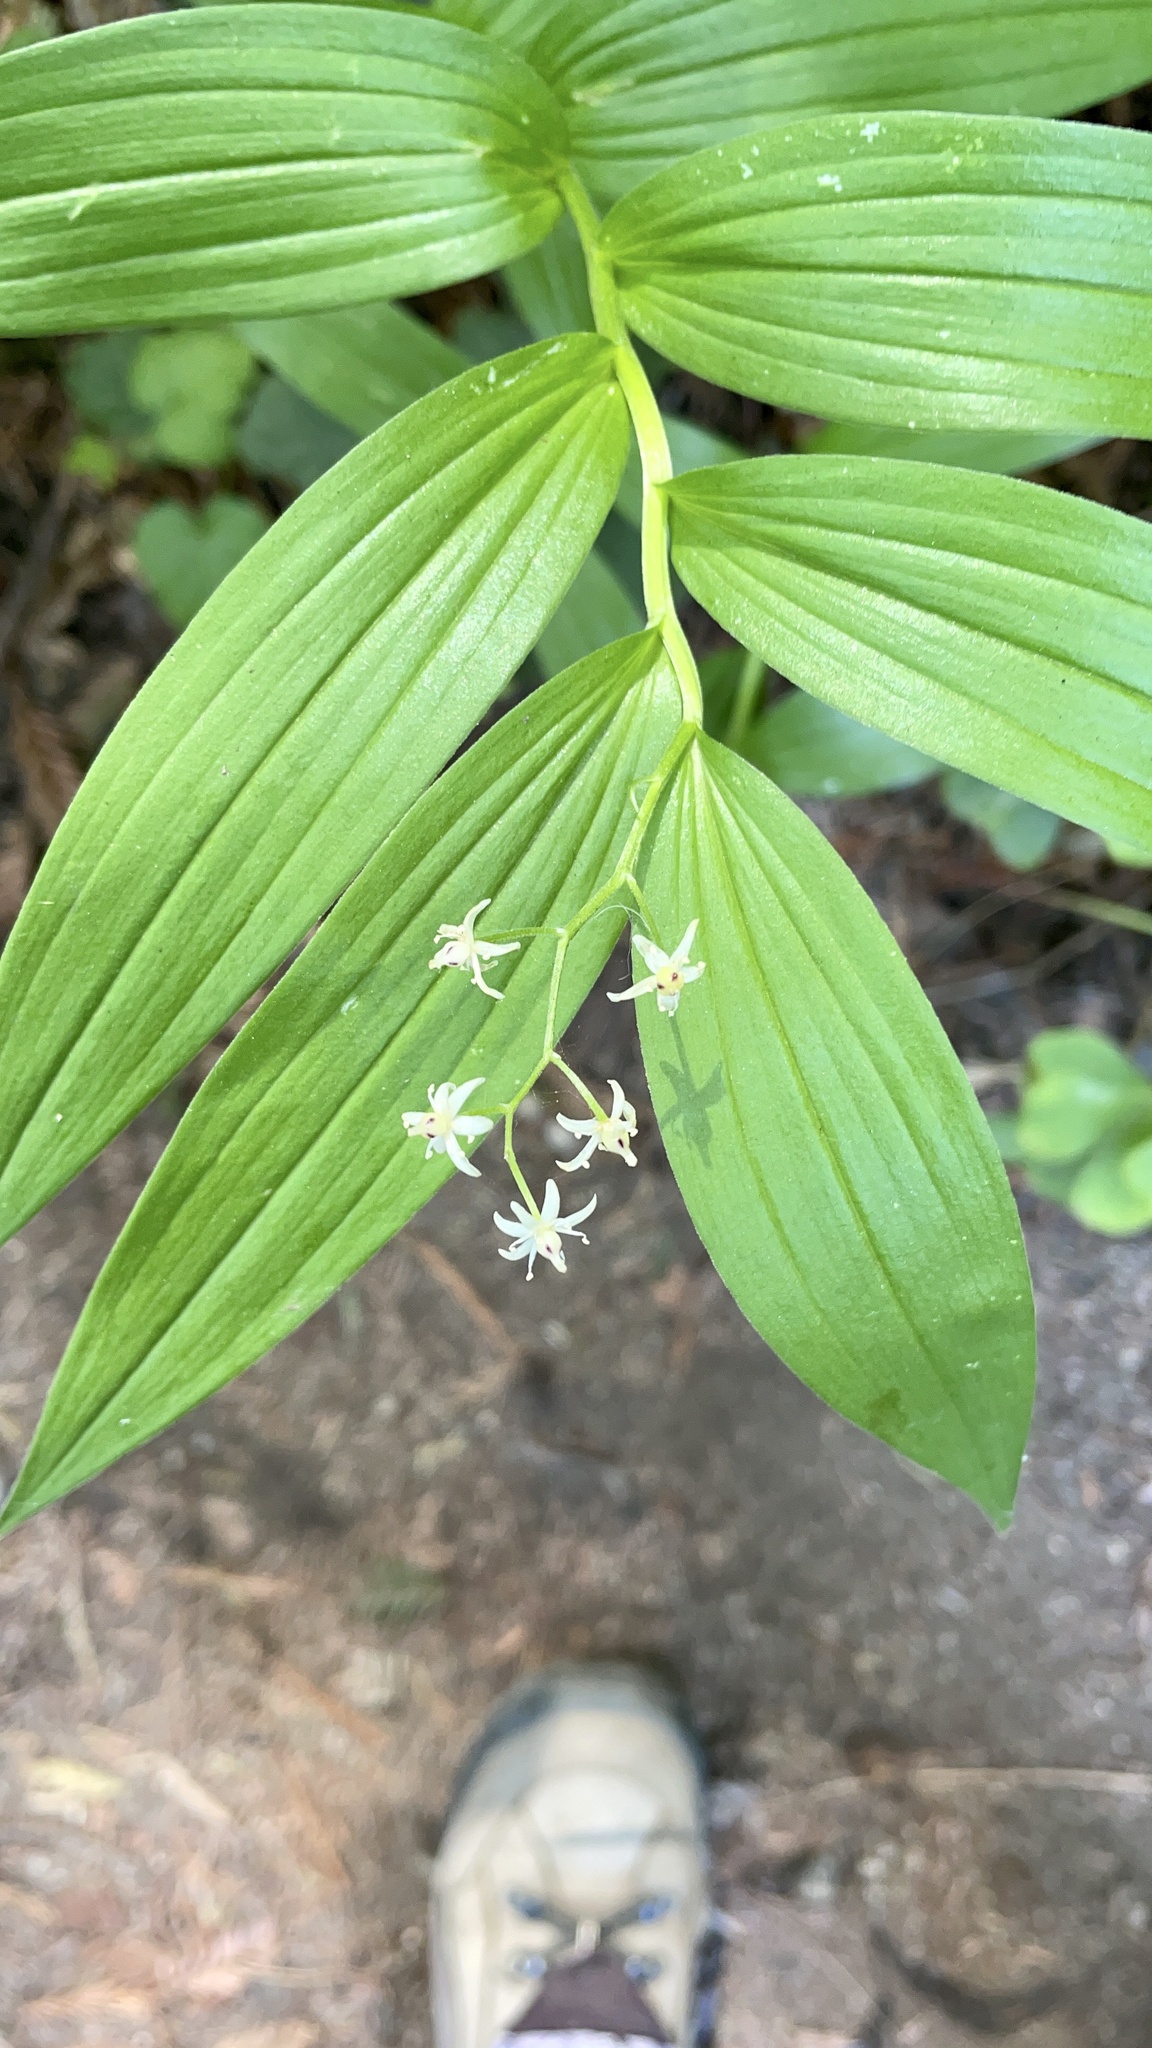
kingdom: Plantae
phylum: Tracheophyta
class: Liliopsida
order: Asparagales
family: Asparagaceae
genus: Maianthemum
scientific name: Maianthemum stellatum
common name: Little false solomon's seal
